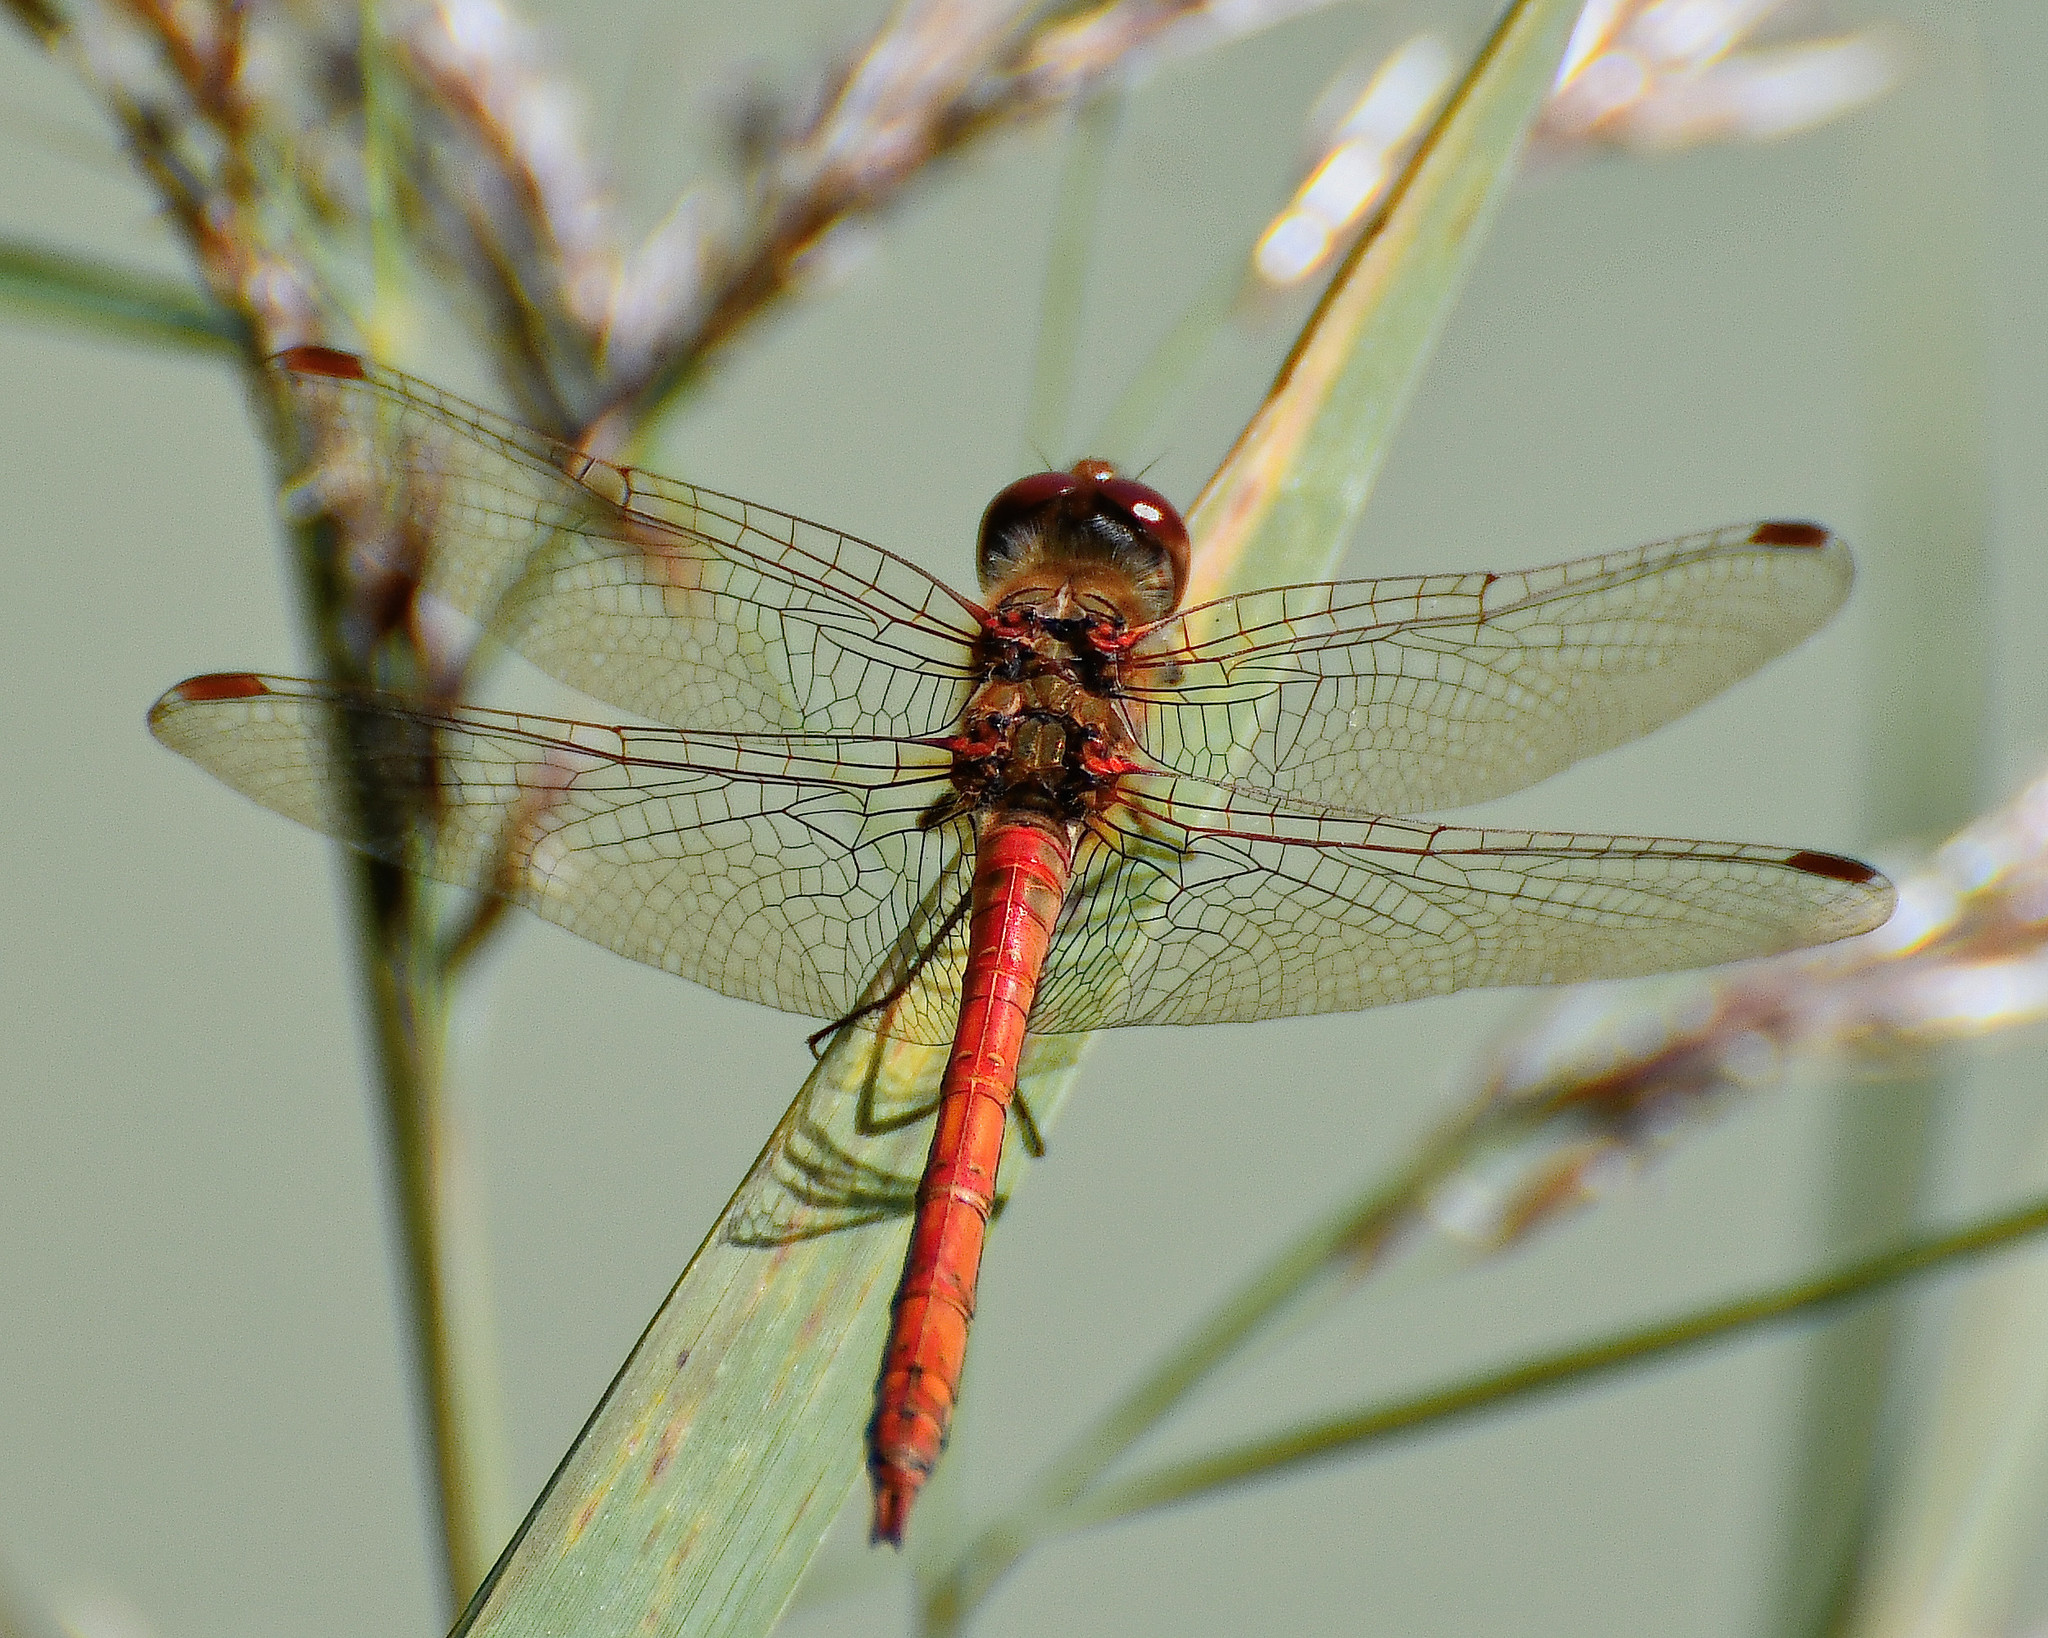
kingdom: Animalia
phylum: Arthropoda
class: Insecta
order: Odonata
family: Libellulidae
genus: Sympetrum
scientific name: Sympetrum striolatum
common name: Common darter
